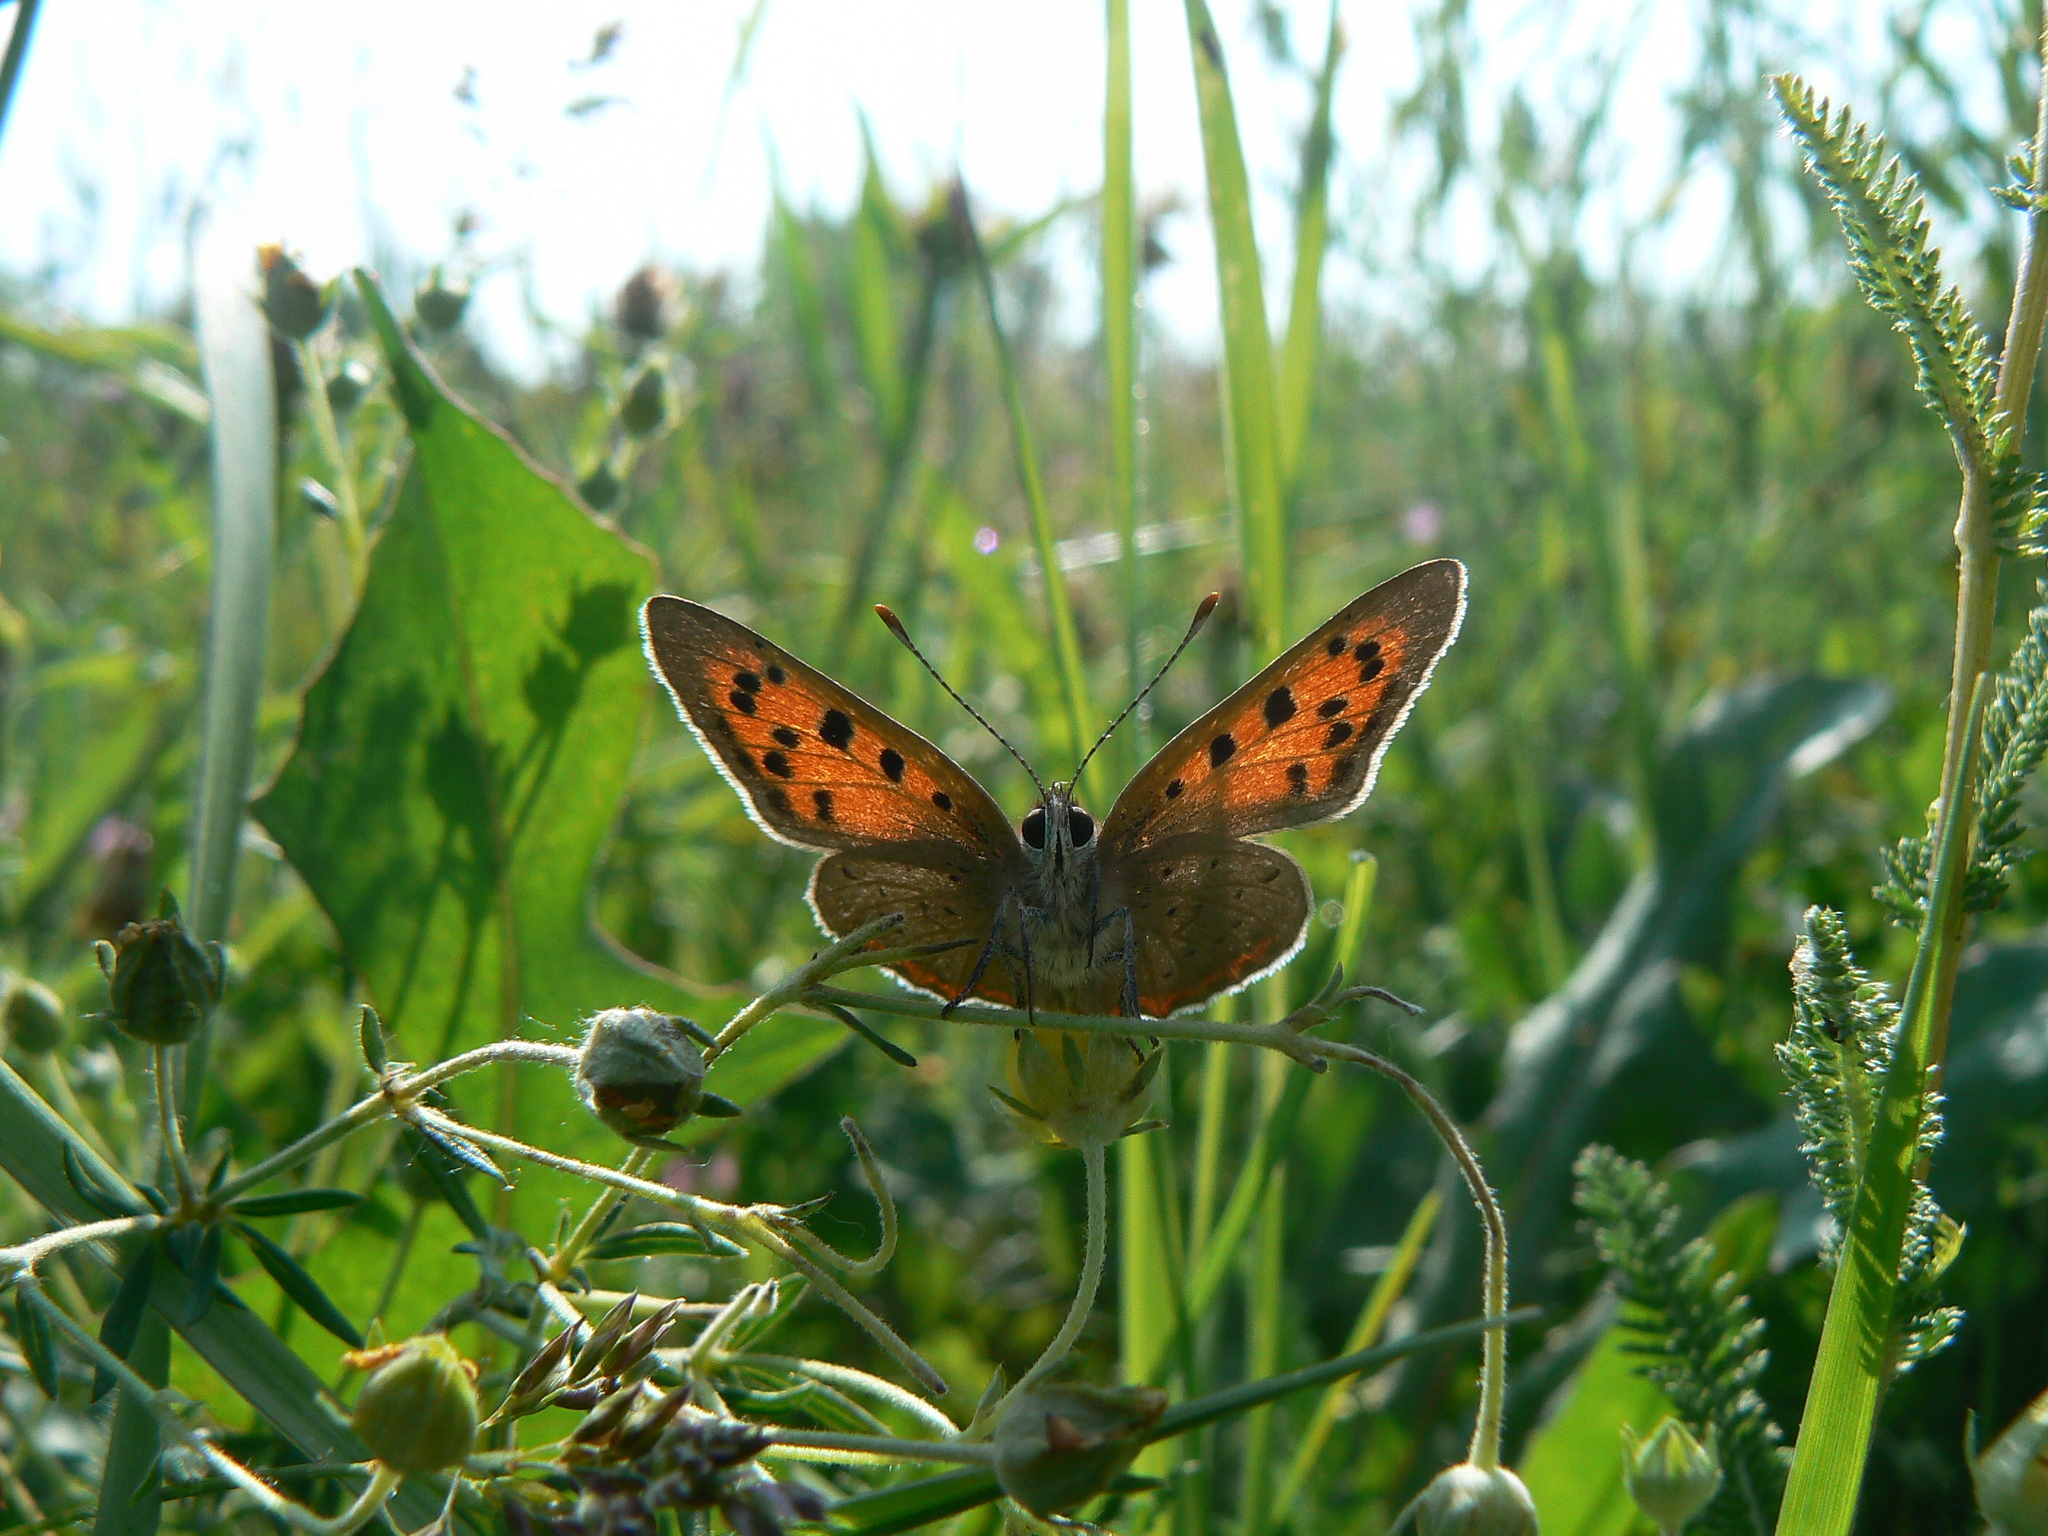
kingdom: Animalia
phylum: Arthropoda
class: Insecta
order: Lepidoptera
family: Lycaenidae
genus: Lycaena
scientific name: Lycaena phlaeas
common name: Small copper
